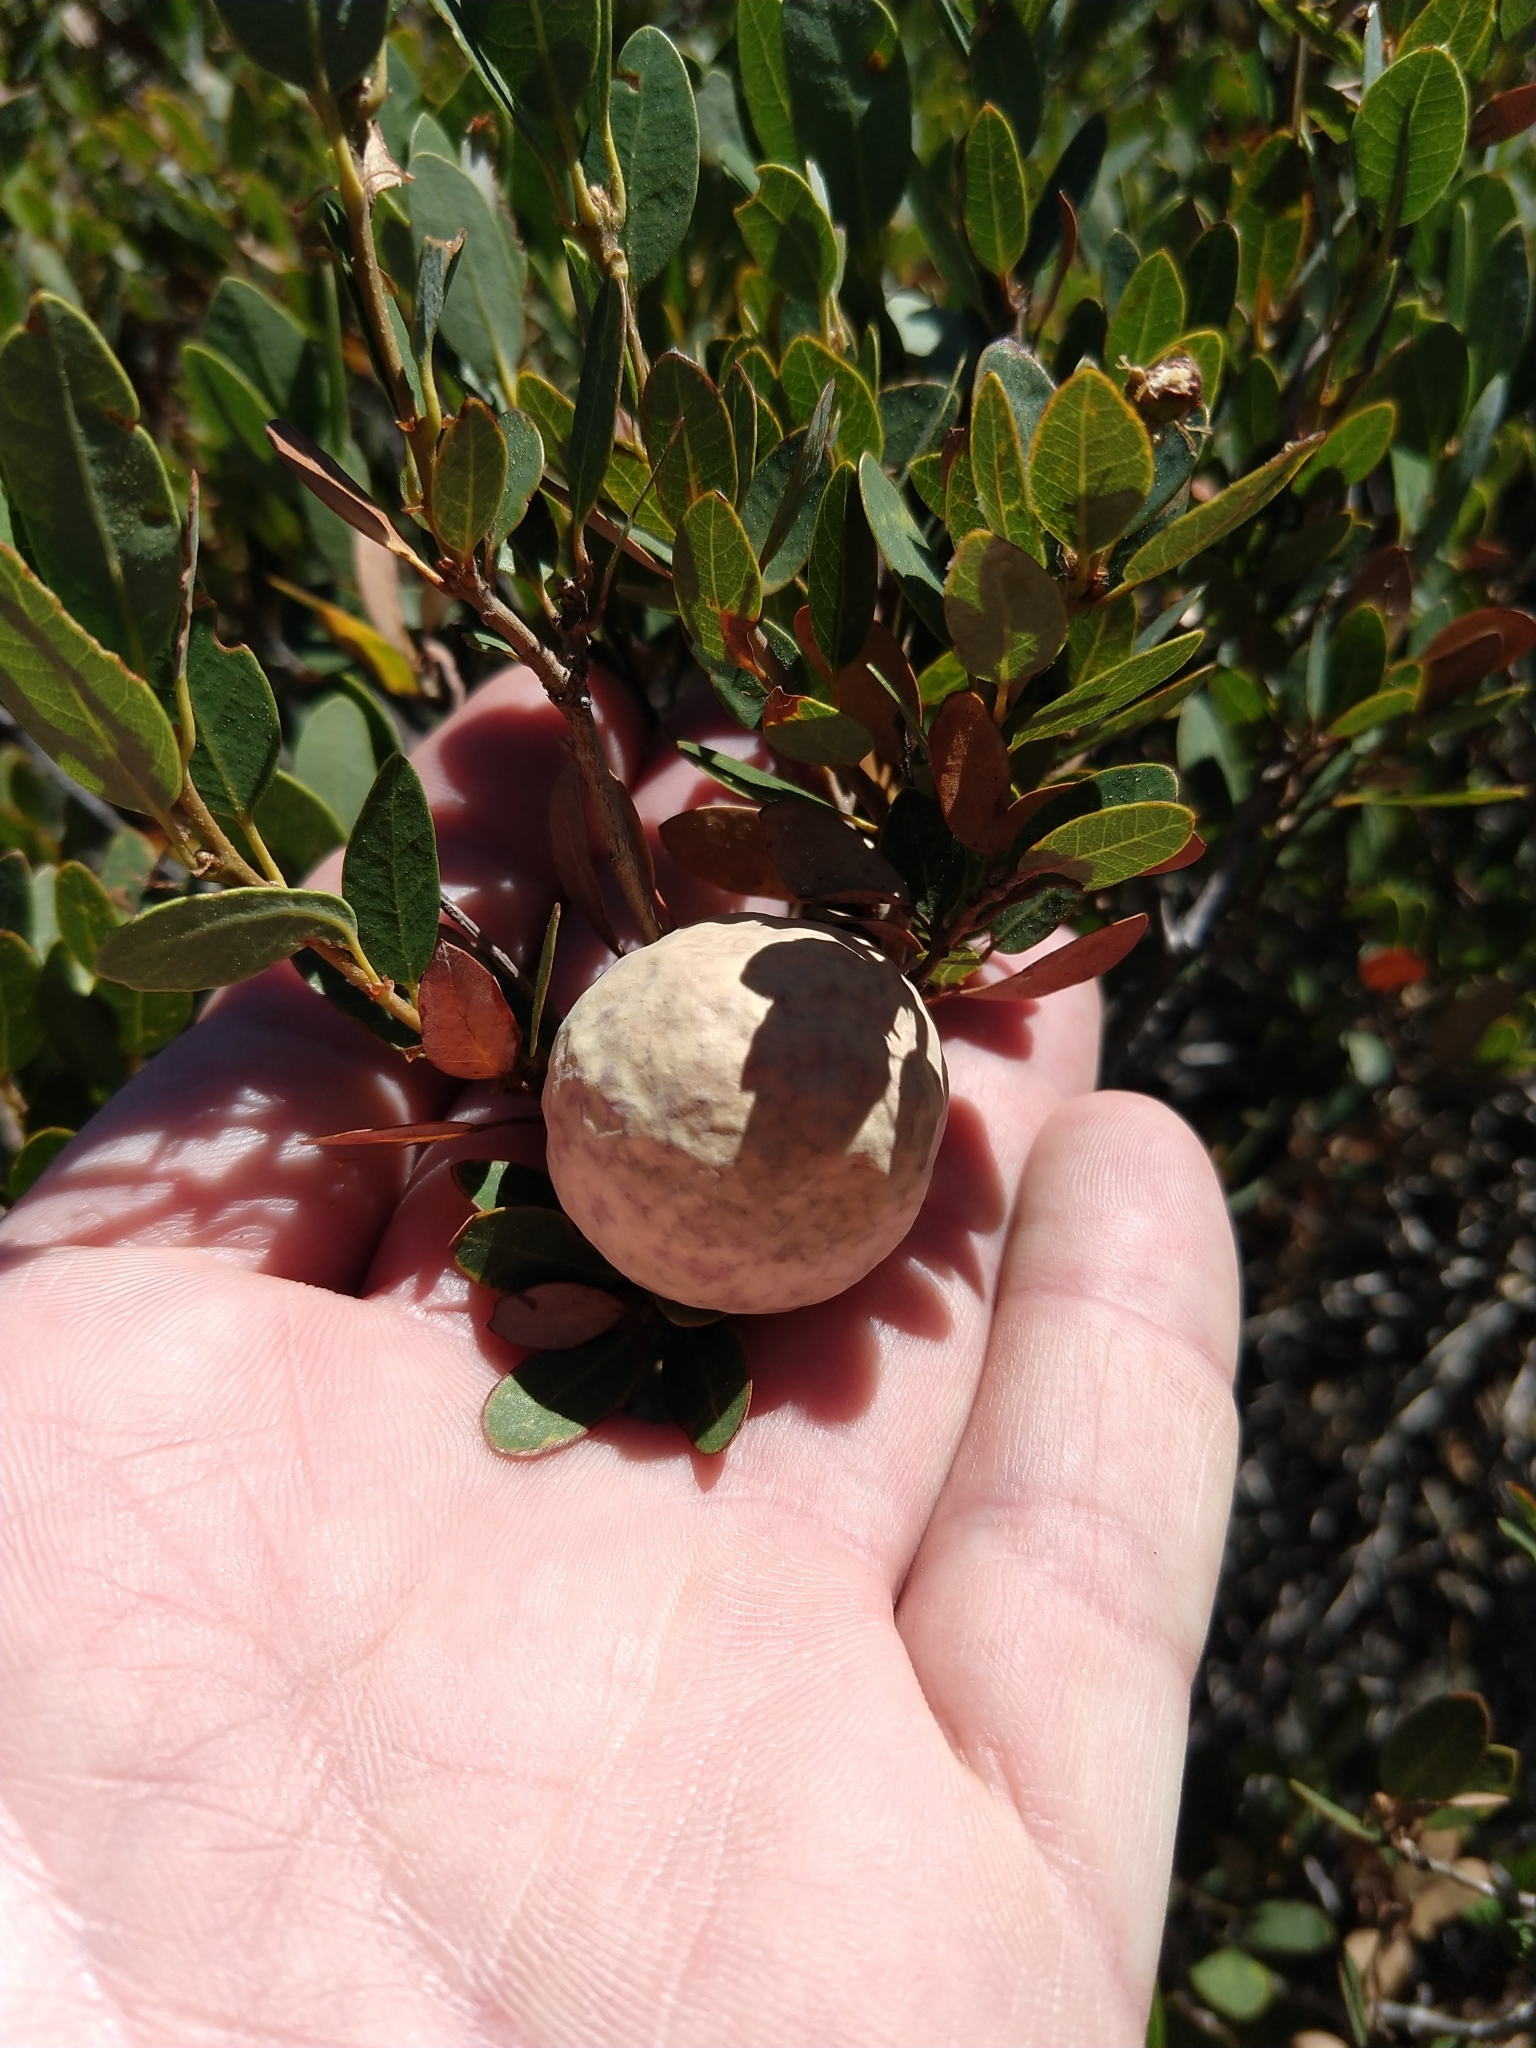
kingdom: Animalia
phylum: Arthropoda
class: Insecta
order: Hymenoptera
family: Cynipidae
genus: Andricus
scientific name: Andricus
